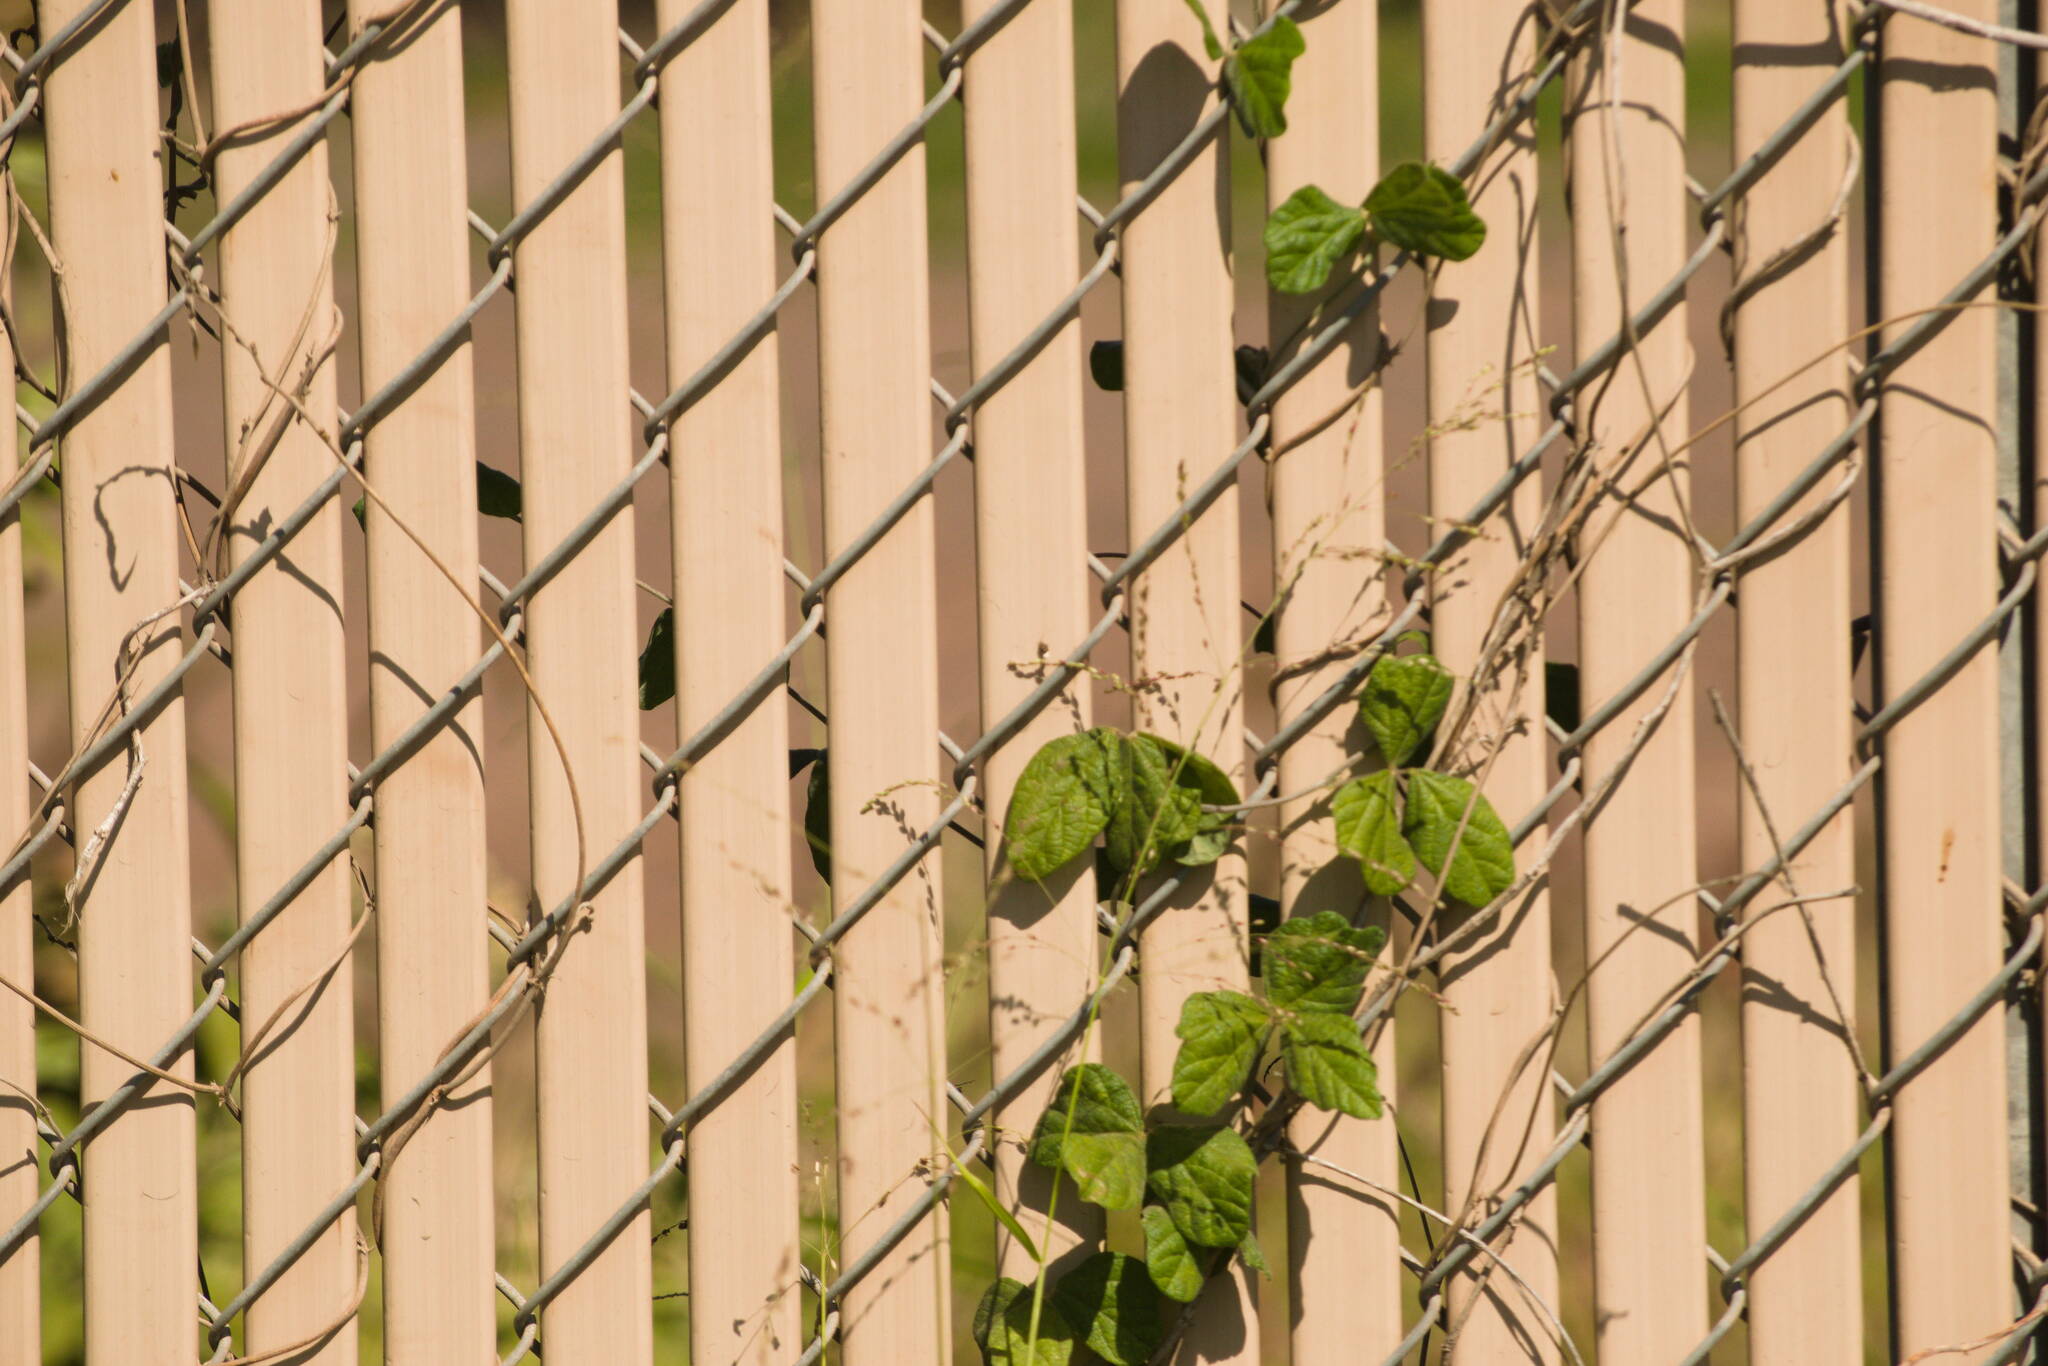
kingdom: Plantae
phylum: Tracheophyta
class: Liliopsida
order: Poales
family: Poaceae
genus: Megathyrsus
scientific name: Megathyrsus maximus
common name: Guineagrass
